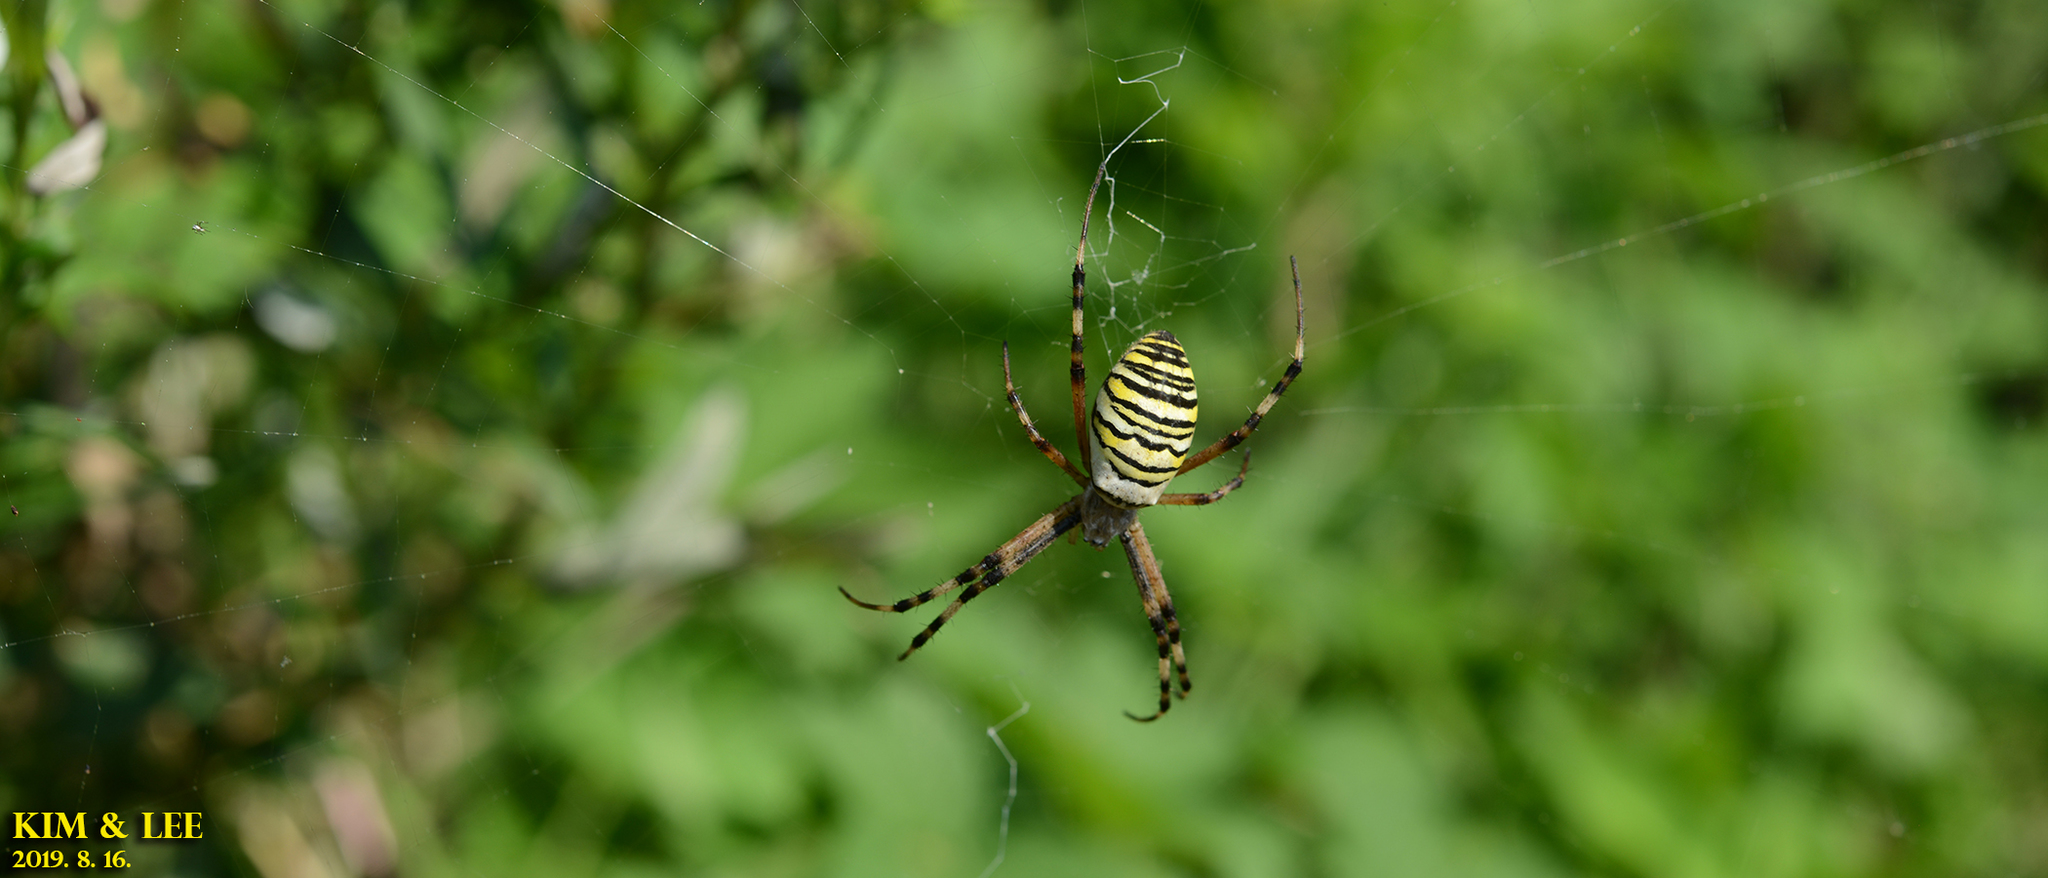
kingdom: Animalia
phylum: Arthropoda
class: Arachnida
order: Araneae
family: Araneidae
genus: Argiope
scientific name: Argiope bruennichi
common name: Wasp spider
